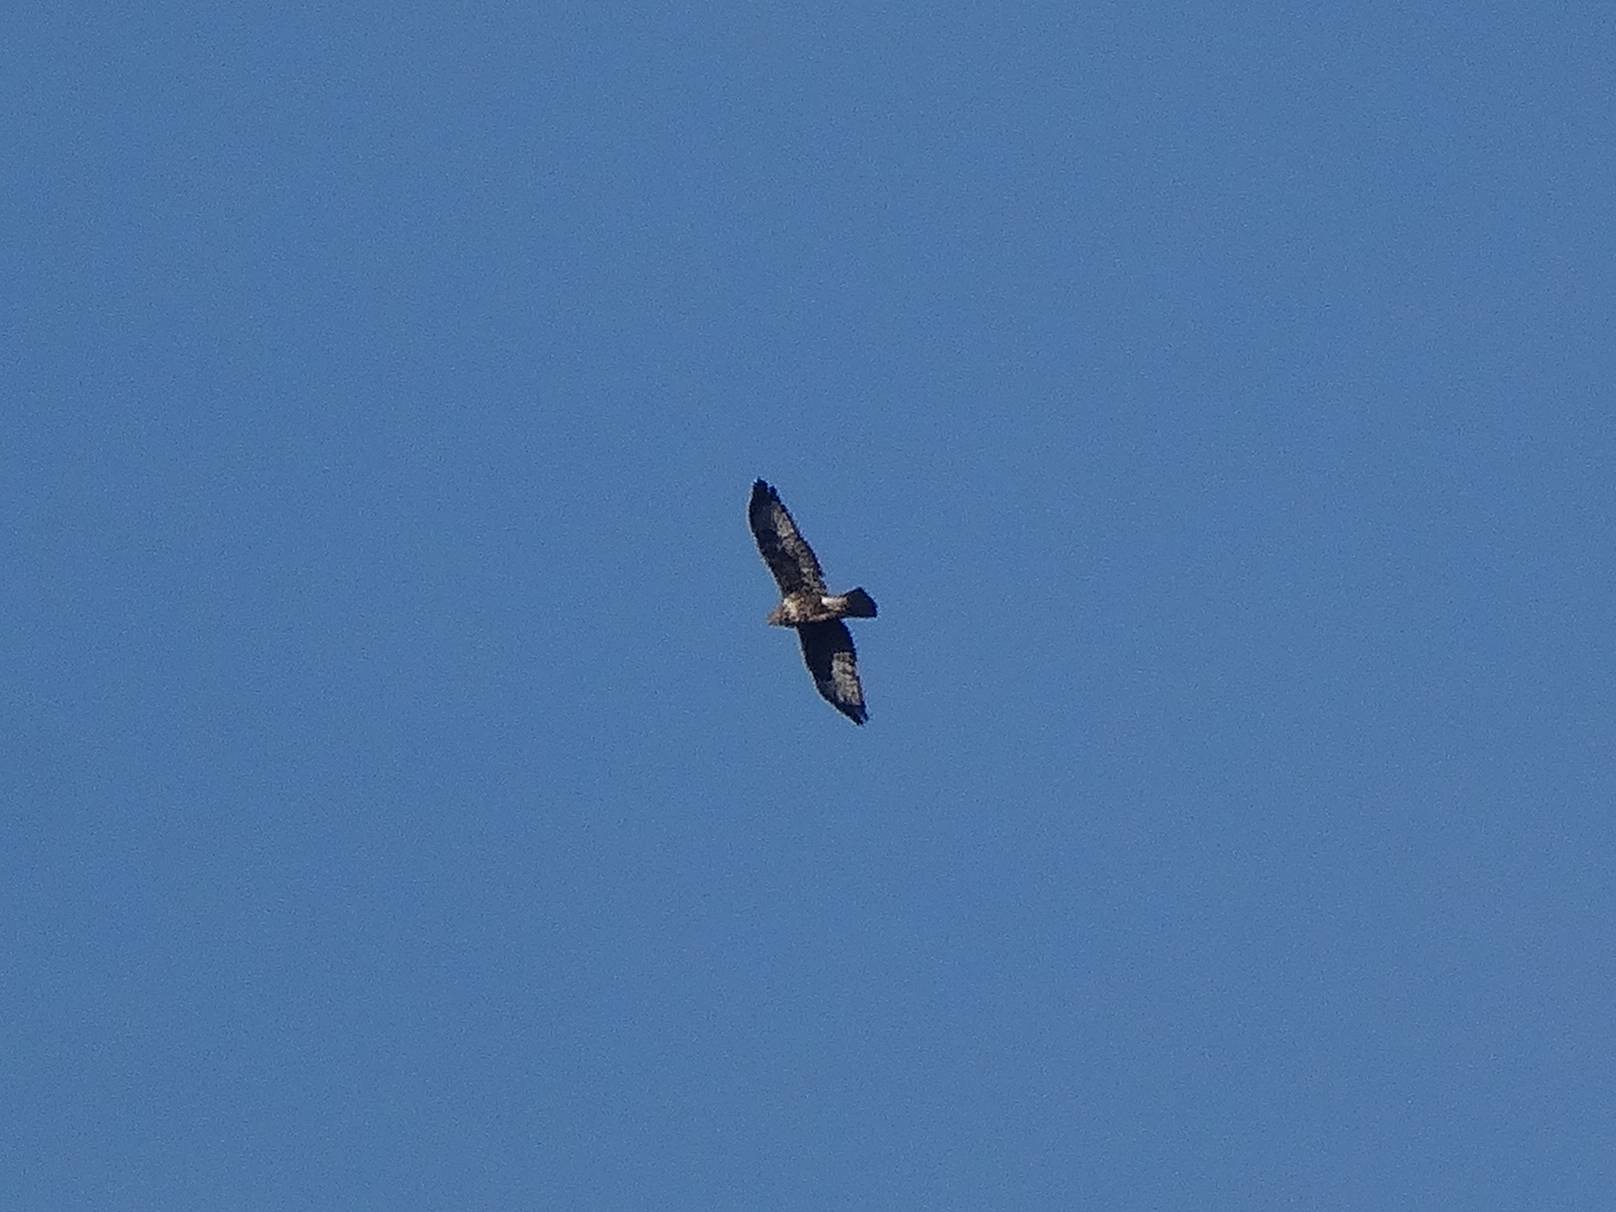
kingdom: Animalia
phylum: Chordata
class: Aves
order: Accipitriformes
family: Accipitridae
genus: Buteo
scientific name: Buteo buteo
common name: Common buzzard
